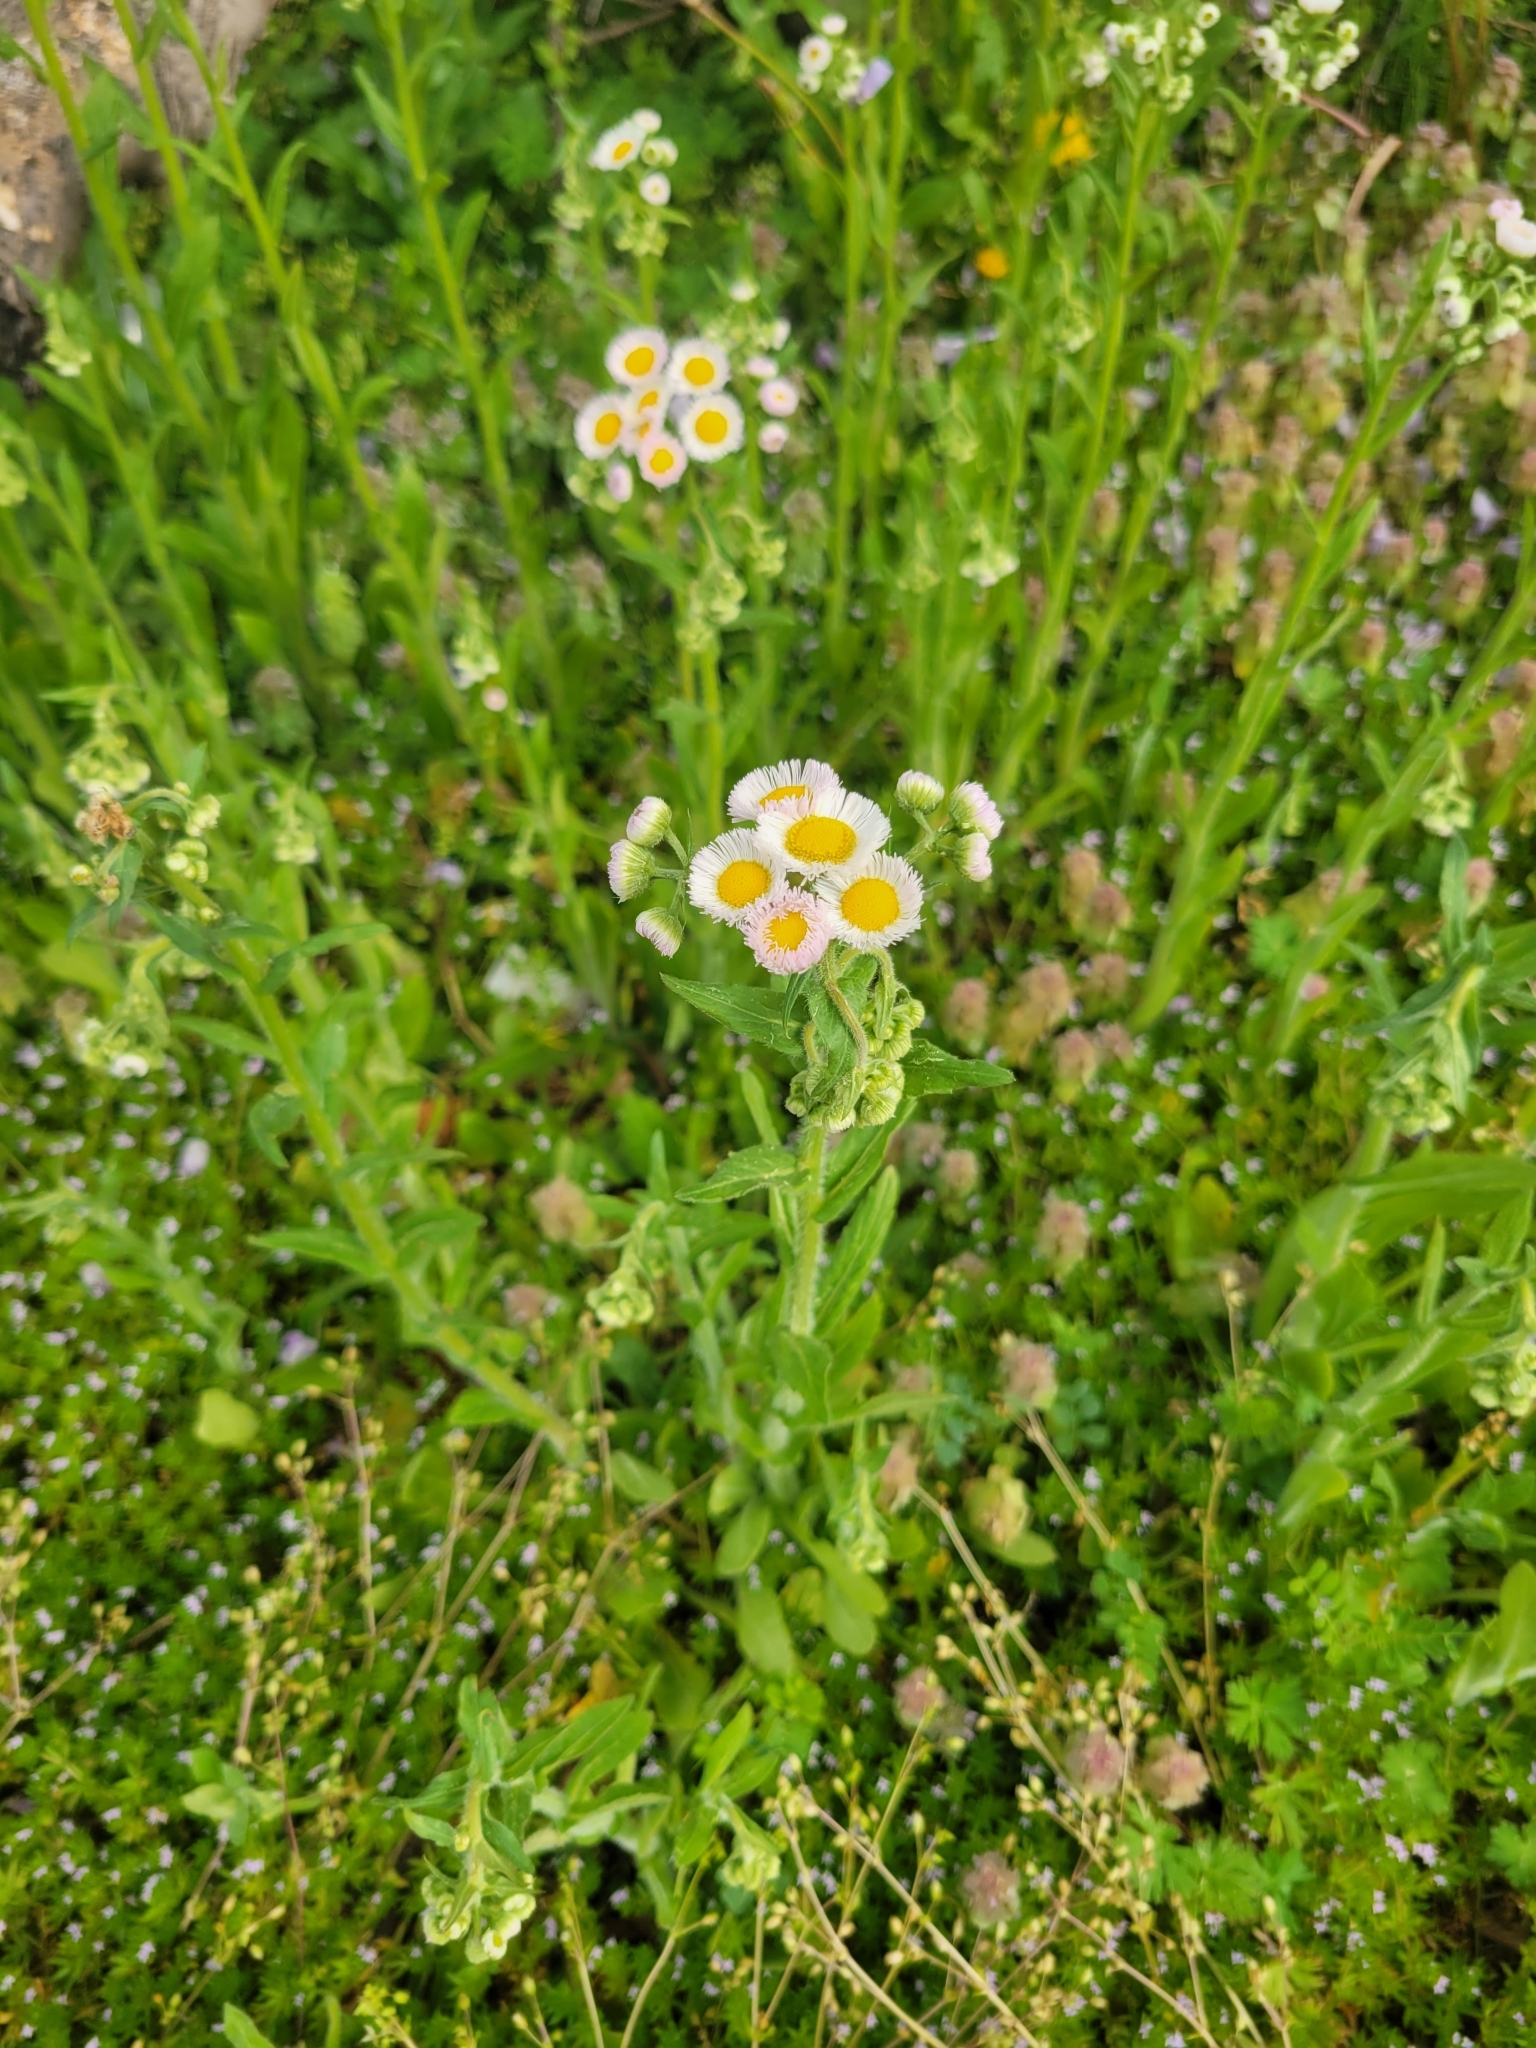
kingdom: Plantae
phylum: Tracheophyta
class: Magnoliopsida
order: Asterales
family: Asteraceae
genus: Erigeron
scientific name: Erigeron philadelphicus
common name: Robin's-plantain
